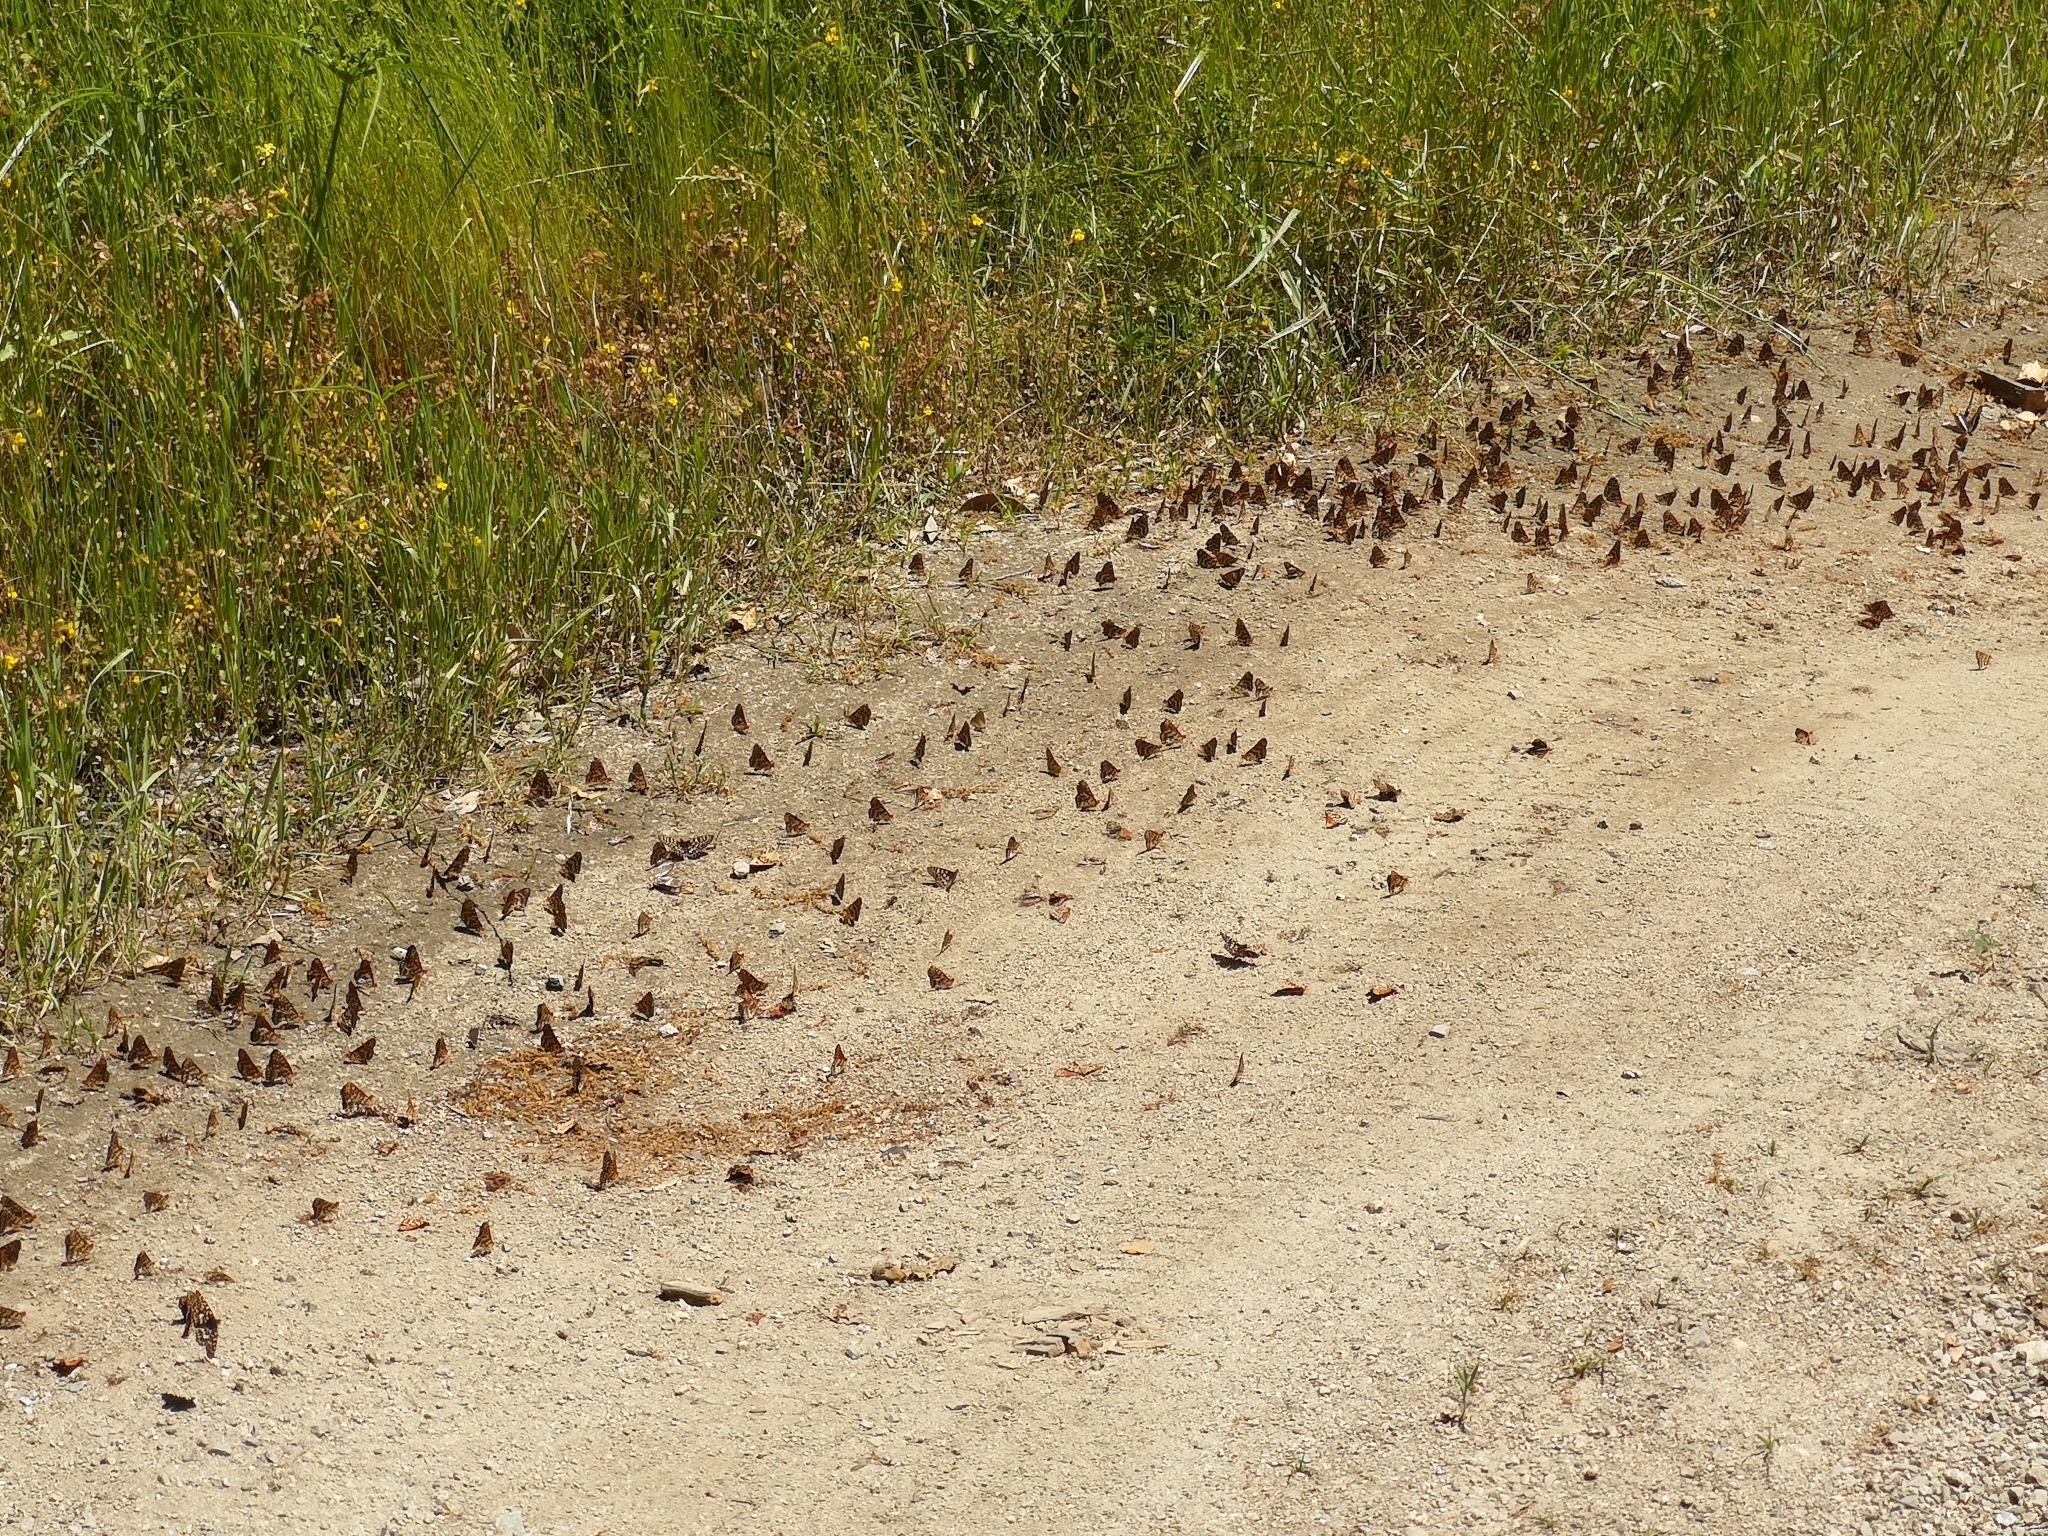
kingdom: Animalia
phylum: Arthropoda
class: Insecta
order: Lepidoptera
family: Nymphalidae
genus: Occidryas
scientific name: Occidryas chalcedona
